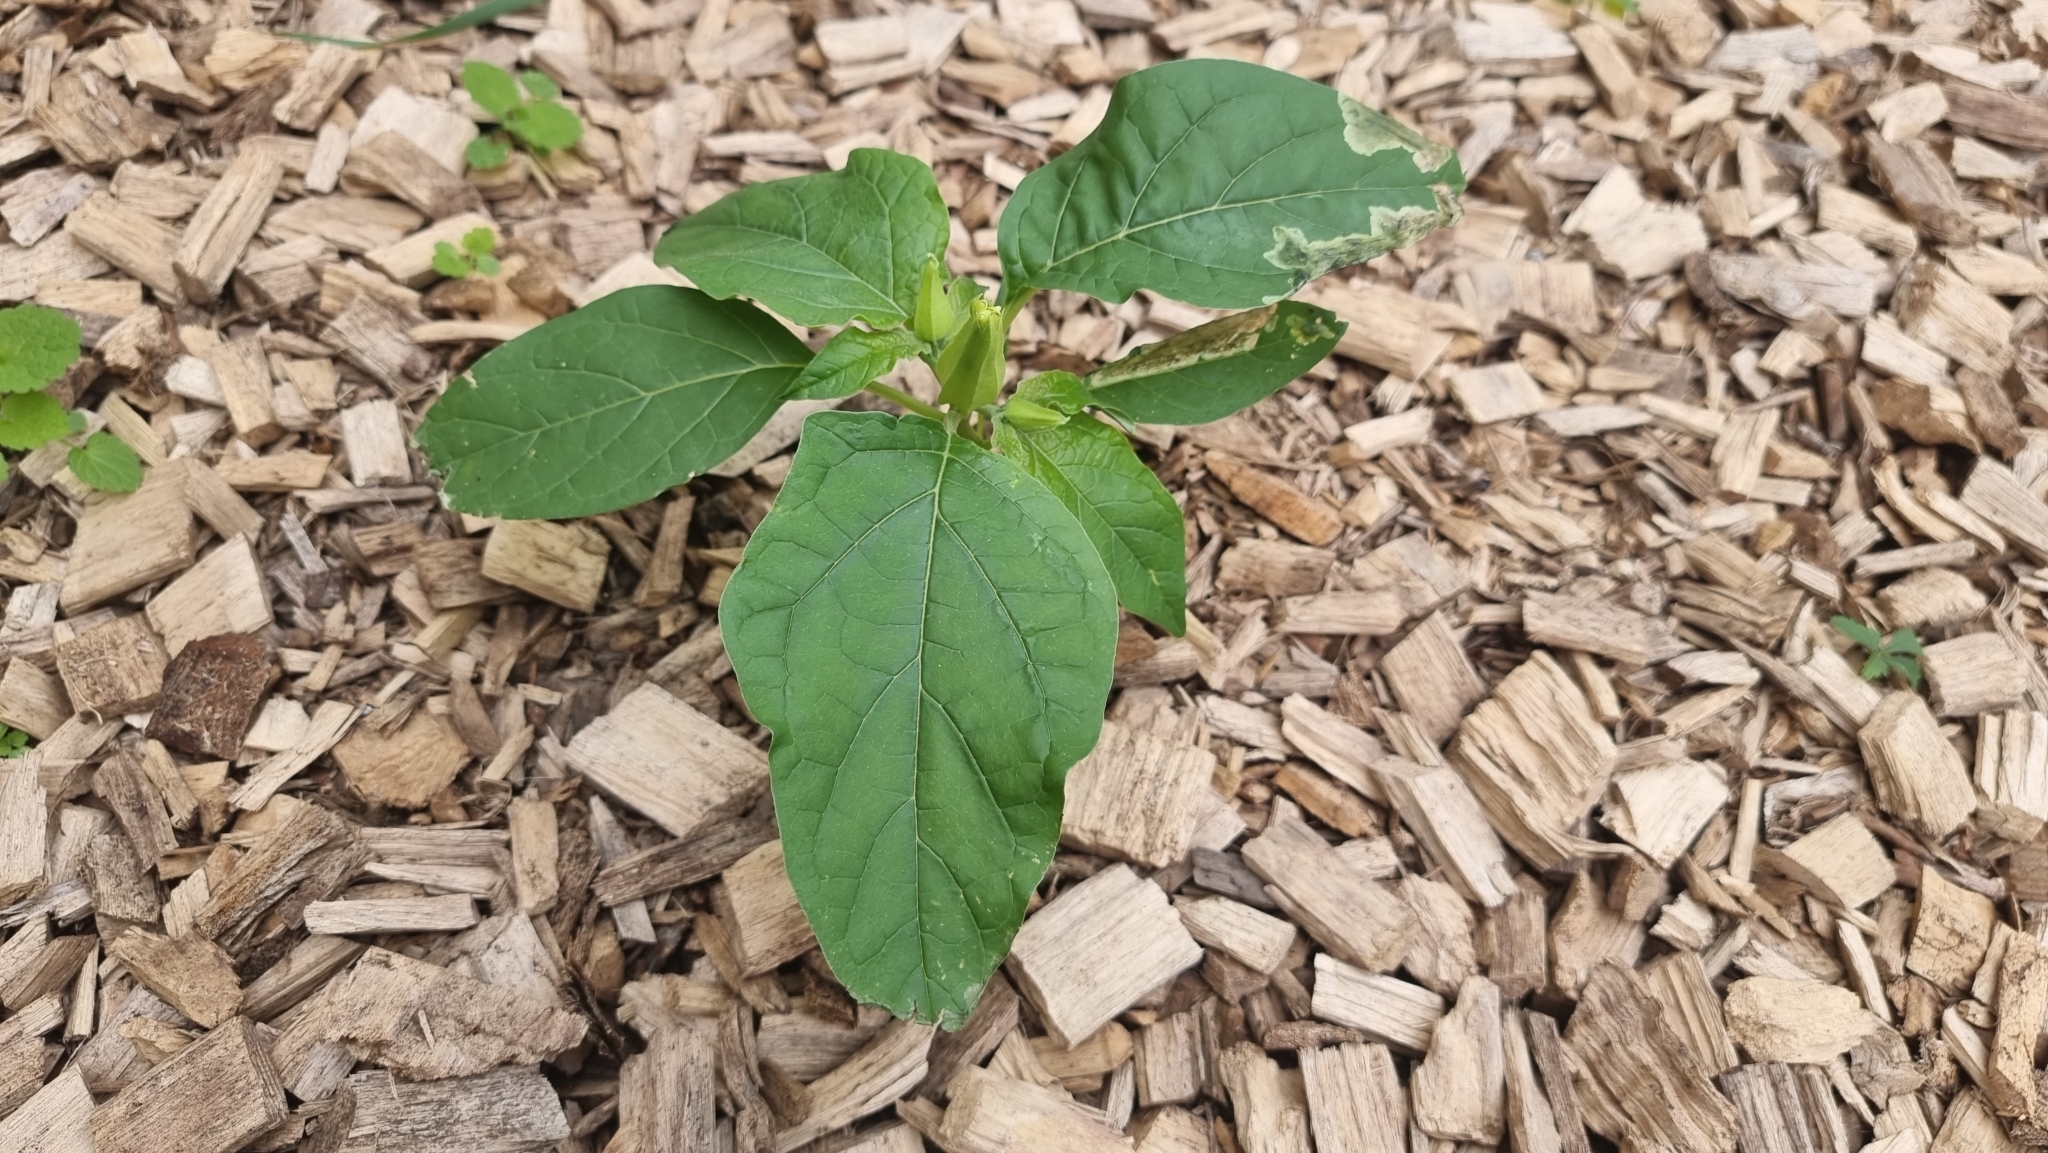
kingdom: Plantae
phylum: Tracheophyta
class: Magnoliopsida
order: Solanales
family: Solanaceae
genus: Datura
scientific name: Datura stramonium
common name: Thorn-apple
